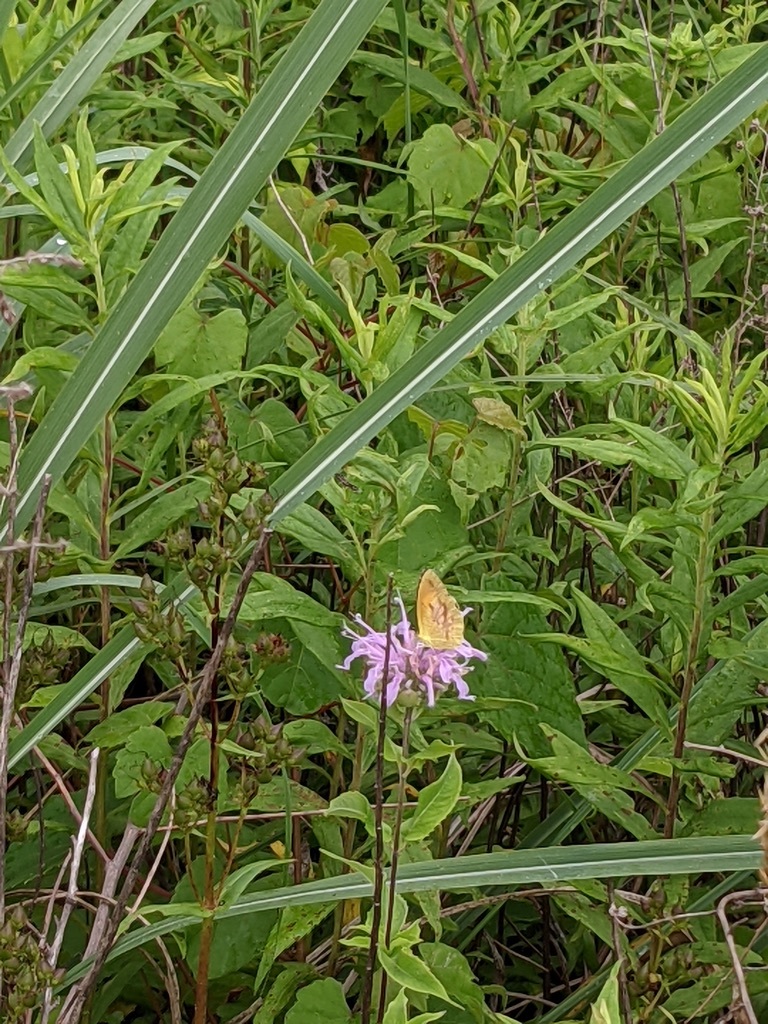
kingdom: Animalia
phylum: Arthropoda
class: Insecta
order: Lepidoptera
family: Pieridae
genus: Abaeis
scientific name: Abaeis nicippe
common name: Sleepy orange
